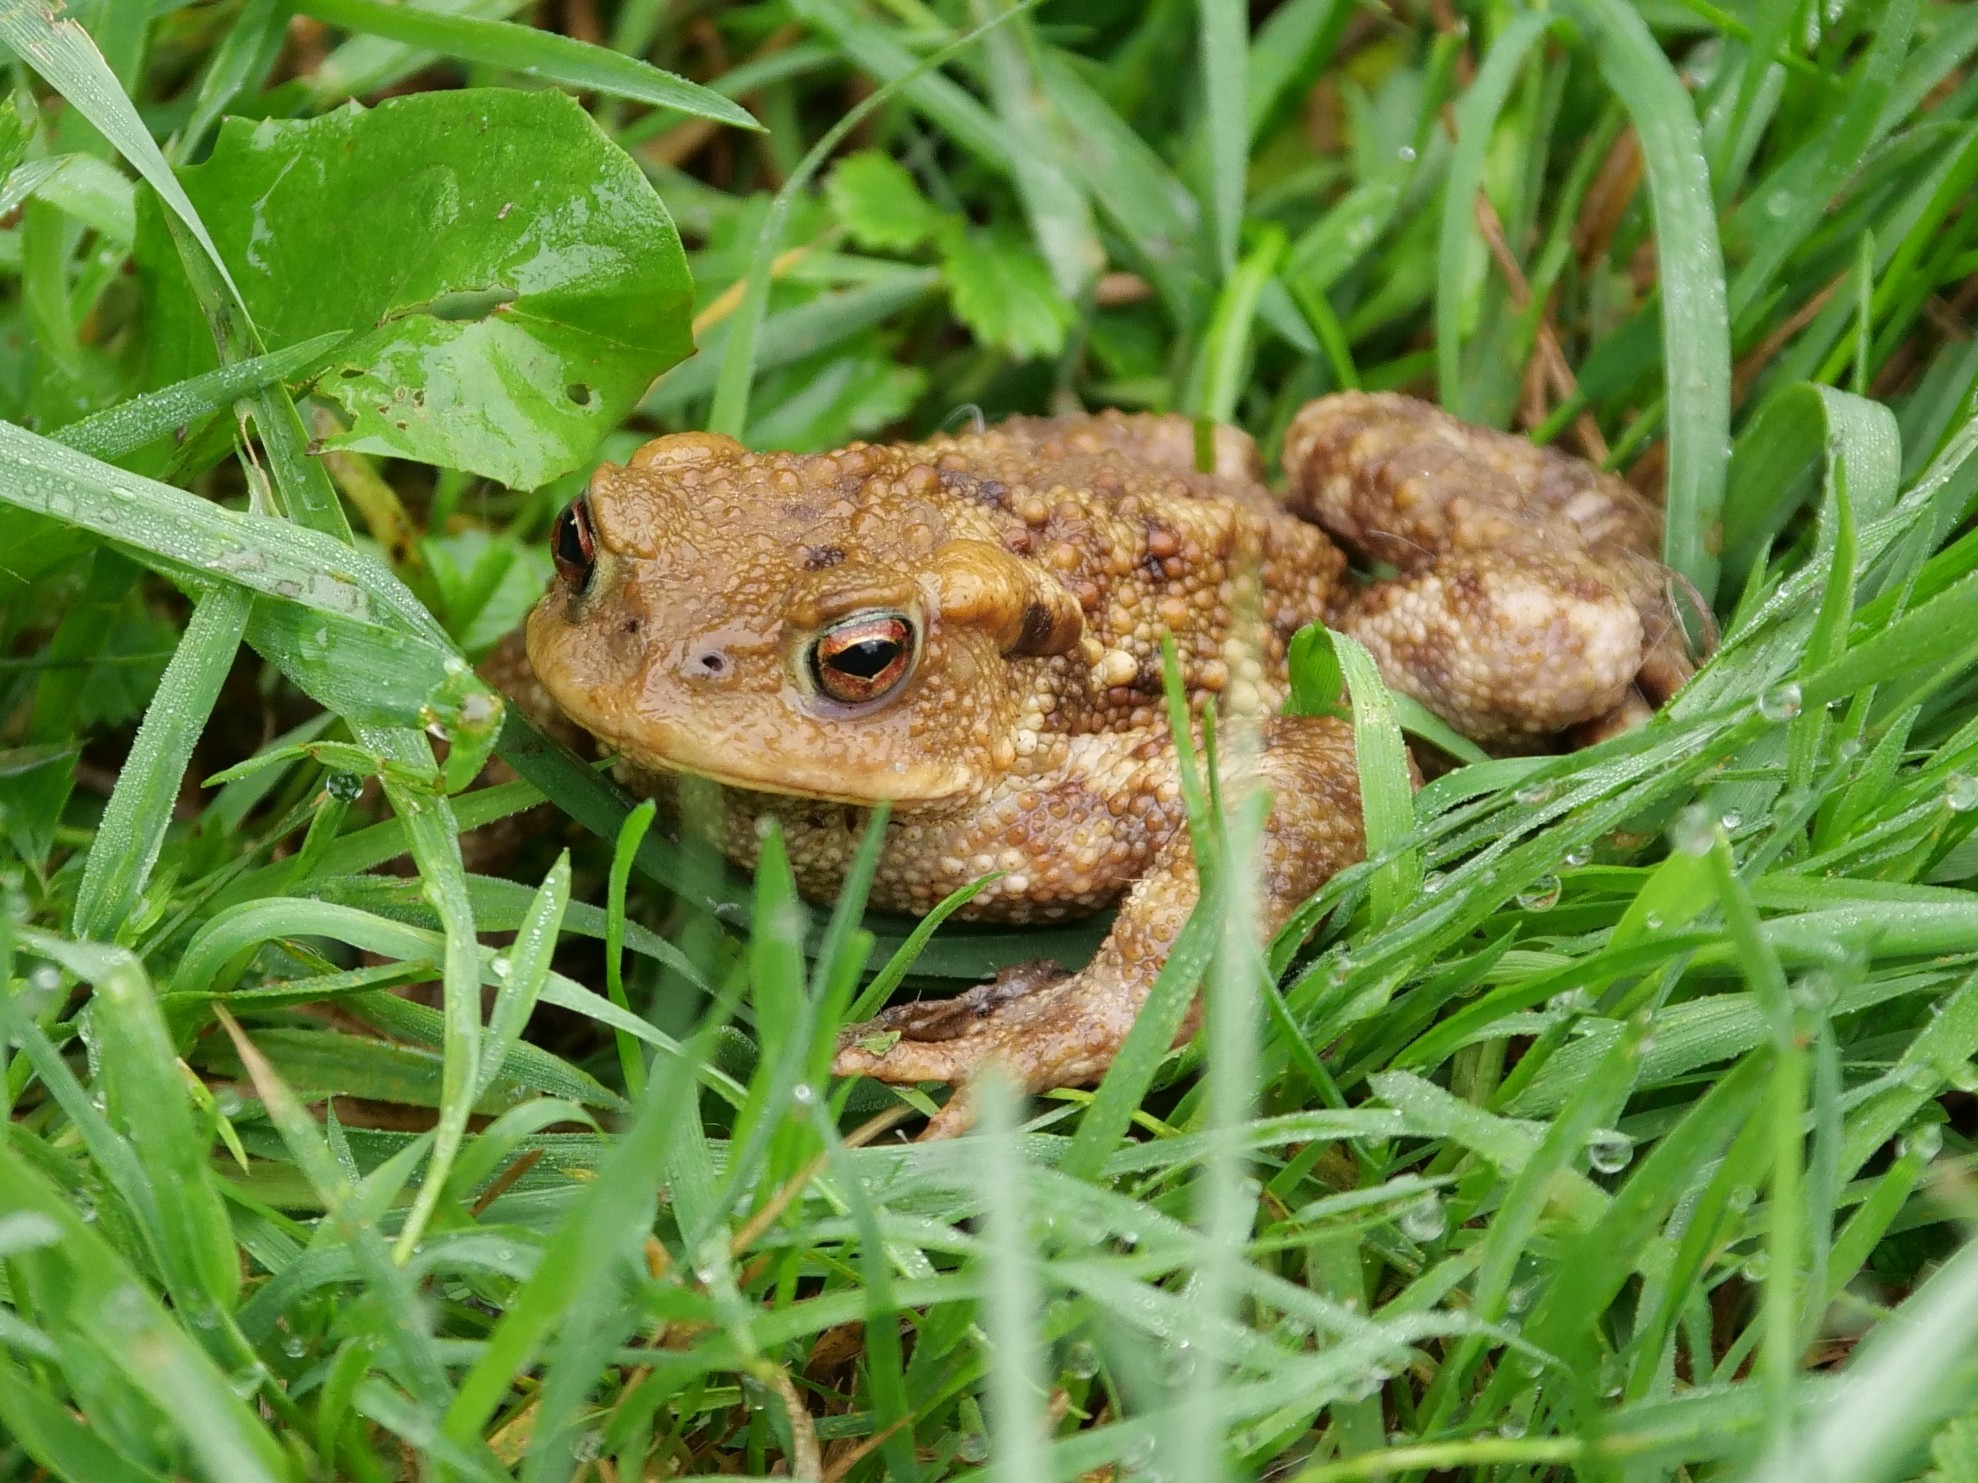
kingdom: Animalia
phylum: Chordata
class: Amphibia
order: Anura
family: Bufonidae
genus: Bufo
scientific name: Bufo bufo
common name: Common toad
